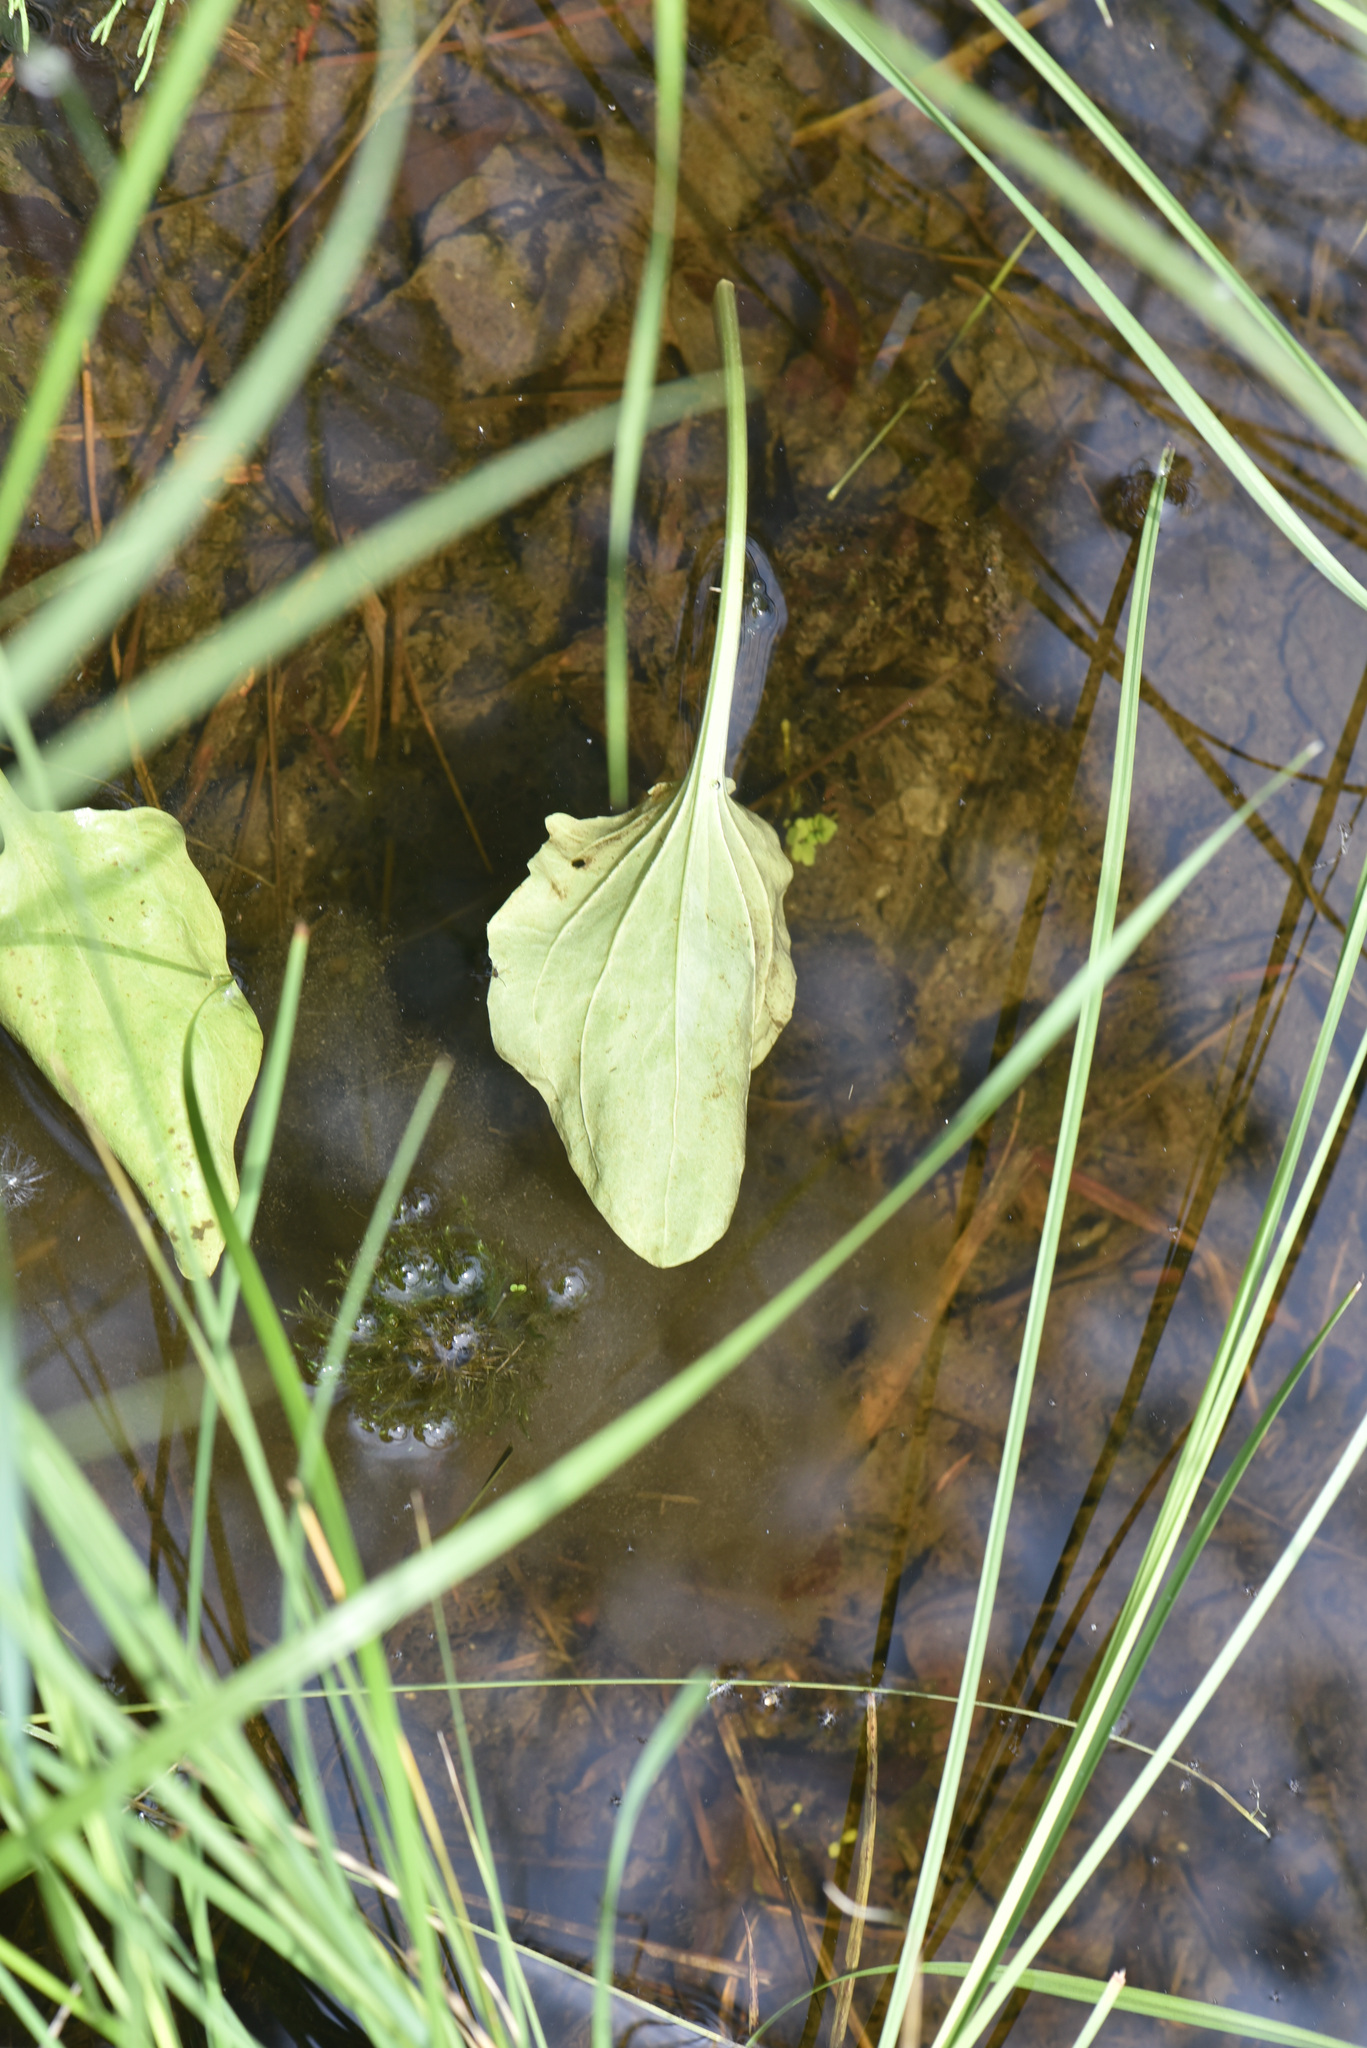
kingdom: Plantae
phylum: Tracheophyta
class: Magnoliopsida
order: Lamiales
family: Plantaginaceae
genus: Plantago
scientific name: Plantago major
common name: Common plantain
